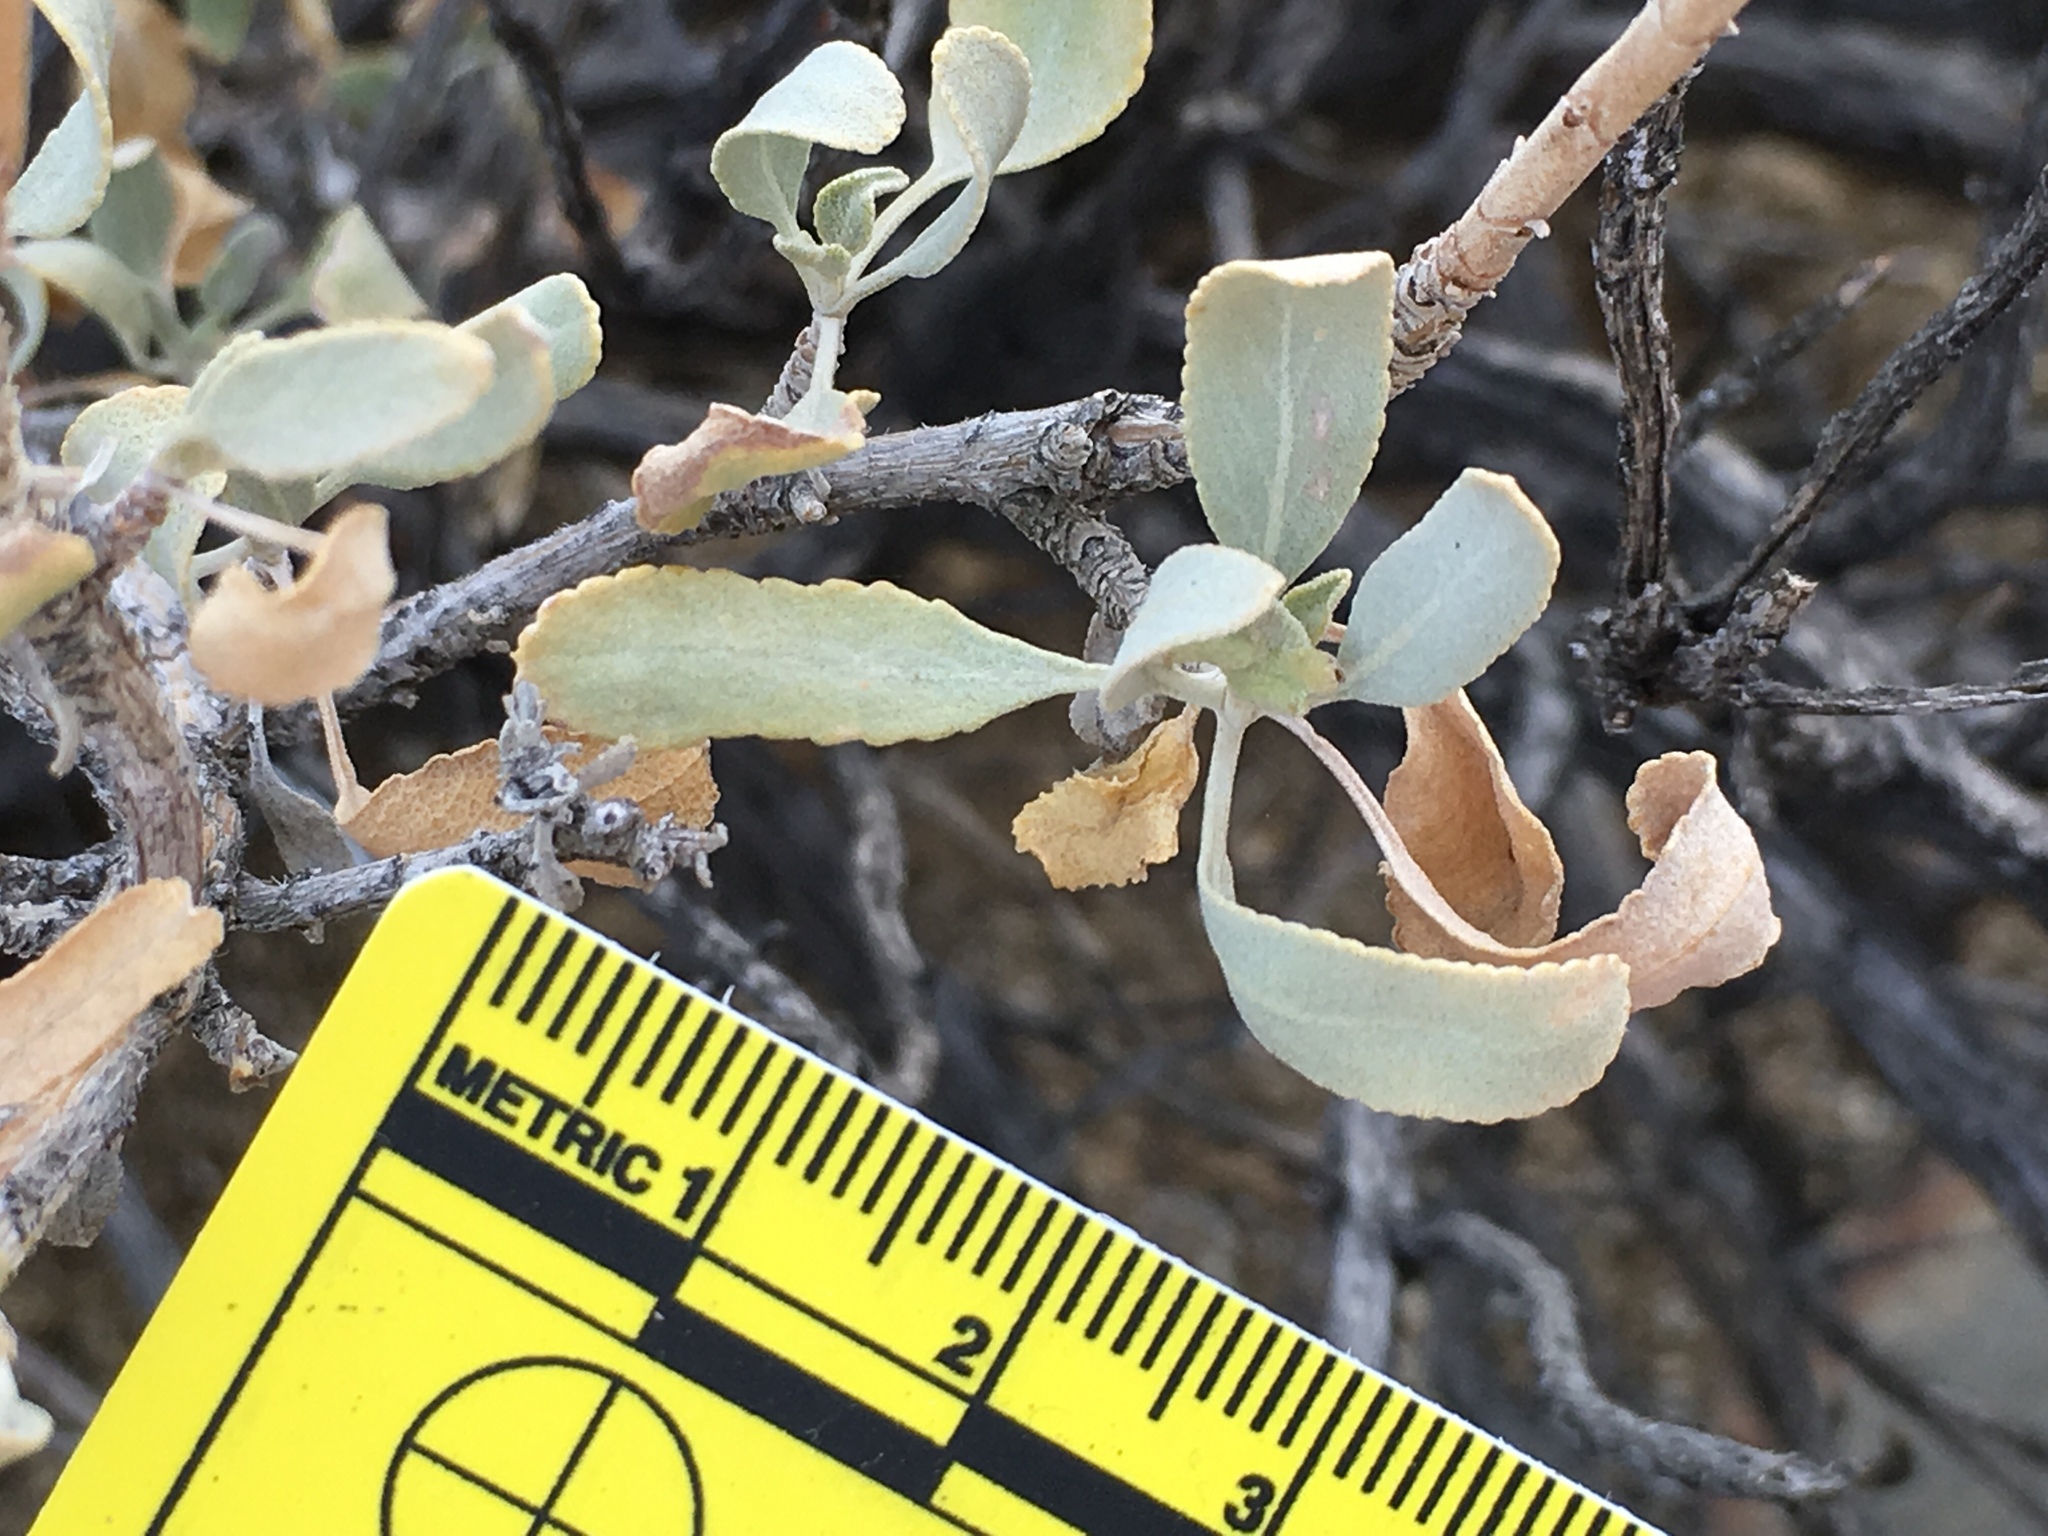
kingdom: Plantae
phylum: Tracheophyta
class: Magnoliopsida
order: Lamiales
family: Lamiaceae
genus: Salvia
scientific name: Salvia vaseyi
